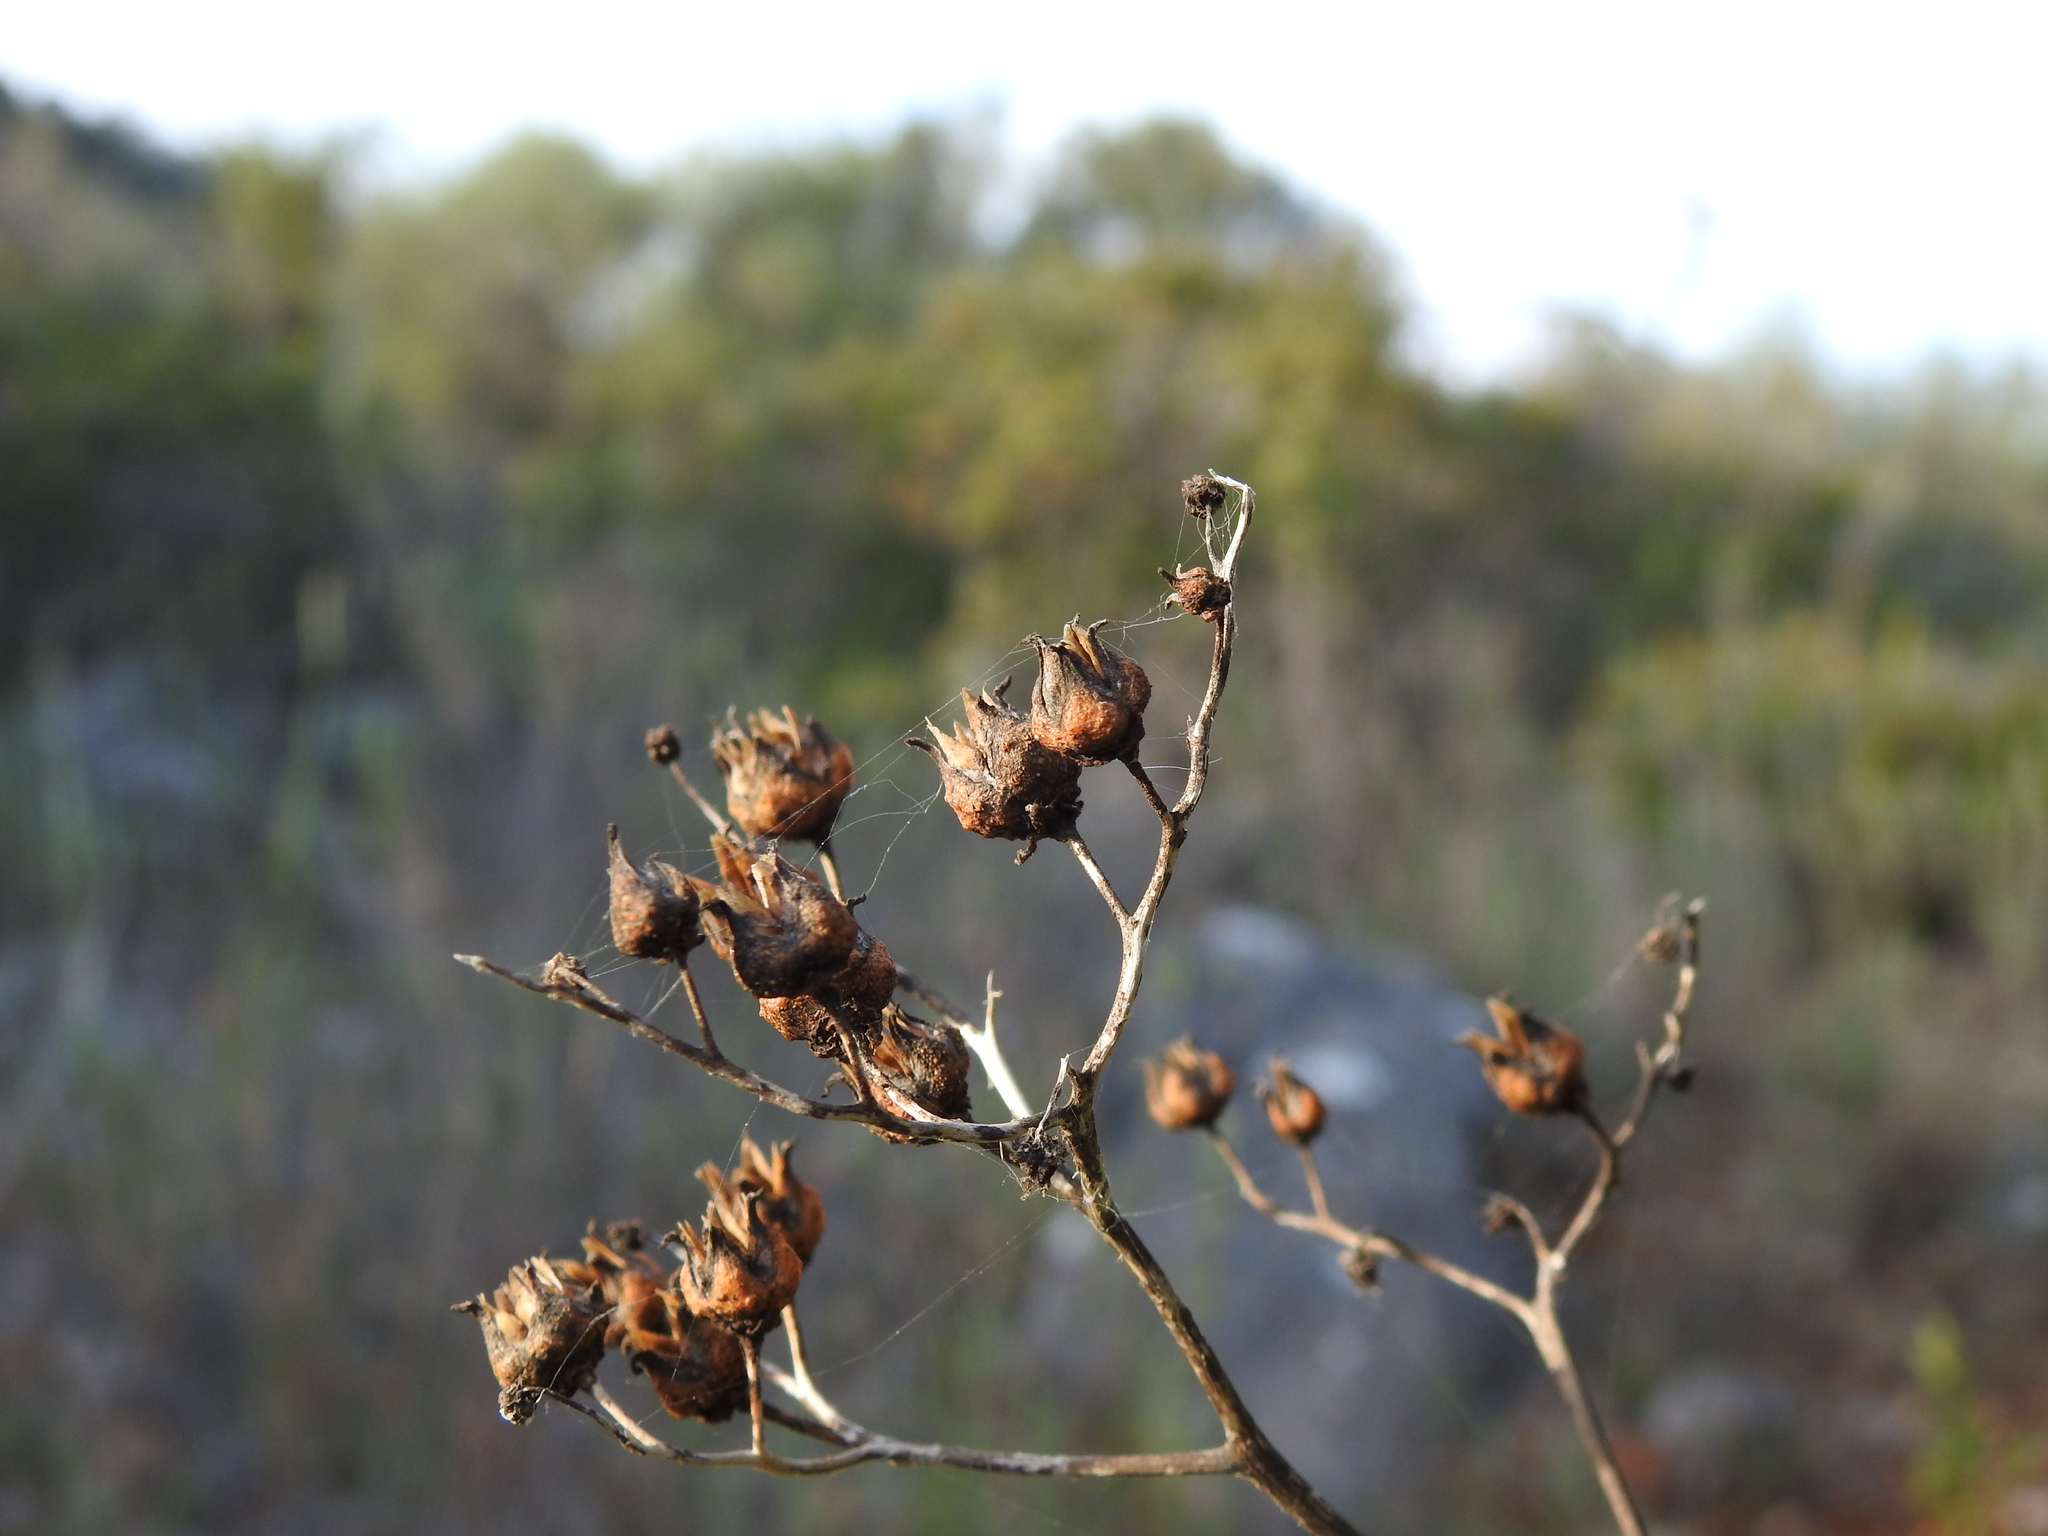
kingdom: Plantae
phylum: Tracheophyta
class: Magnoliopsida
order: Sapindales
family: Rutaceae
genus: Ruta
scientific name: Ruta chalepensis
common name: Fringed rue
